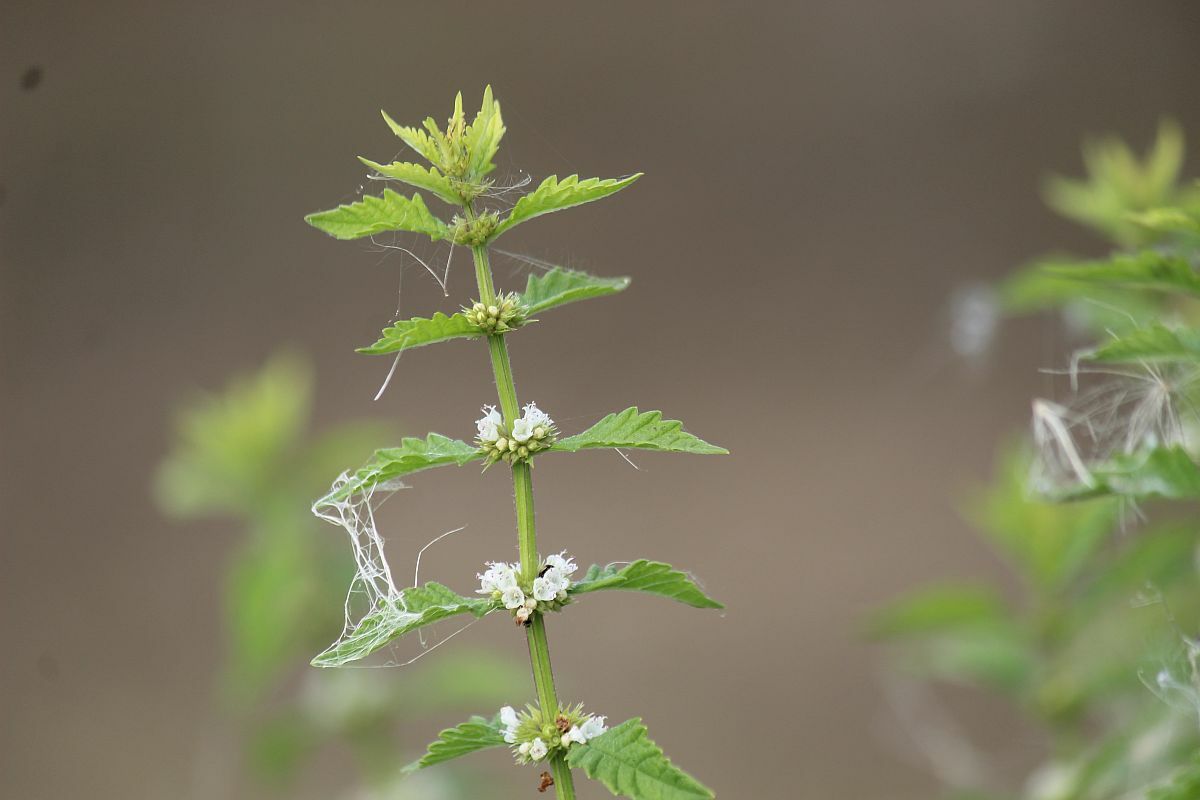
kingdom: Plantae
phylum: Tracheophyta
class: Magnoliopsida
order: Lamiales
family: Lamiaceae
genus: Lycopus
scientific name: Lycopus europaeus
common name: European bugleweed
